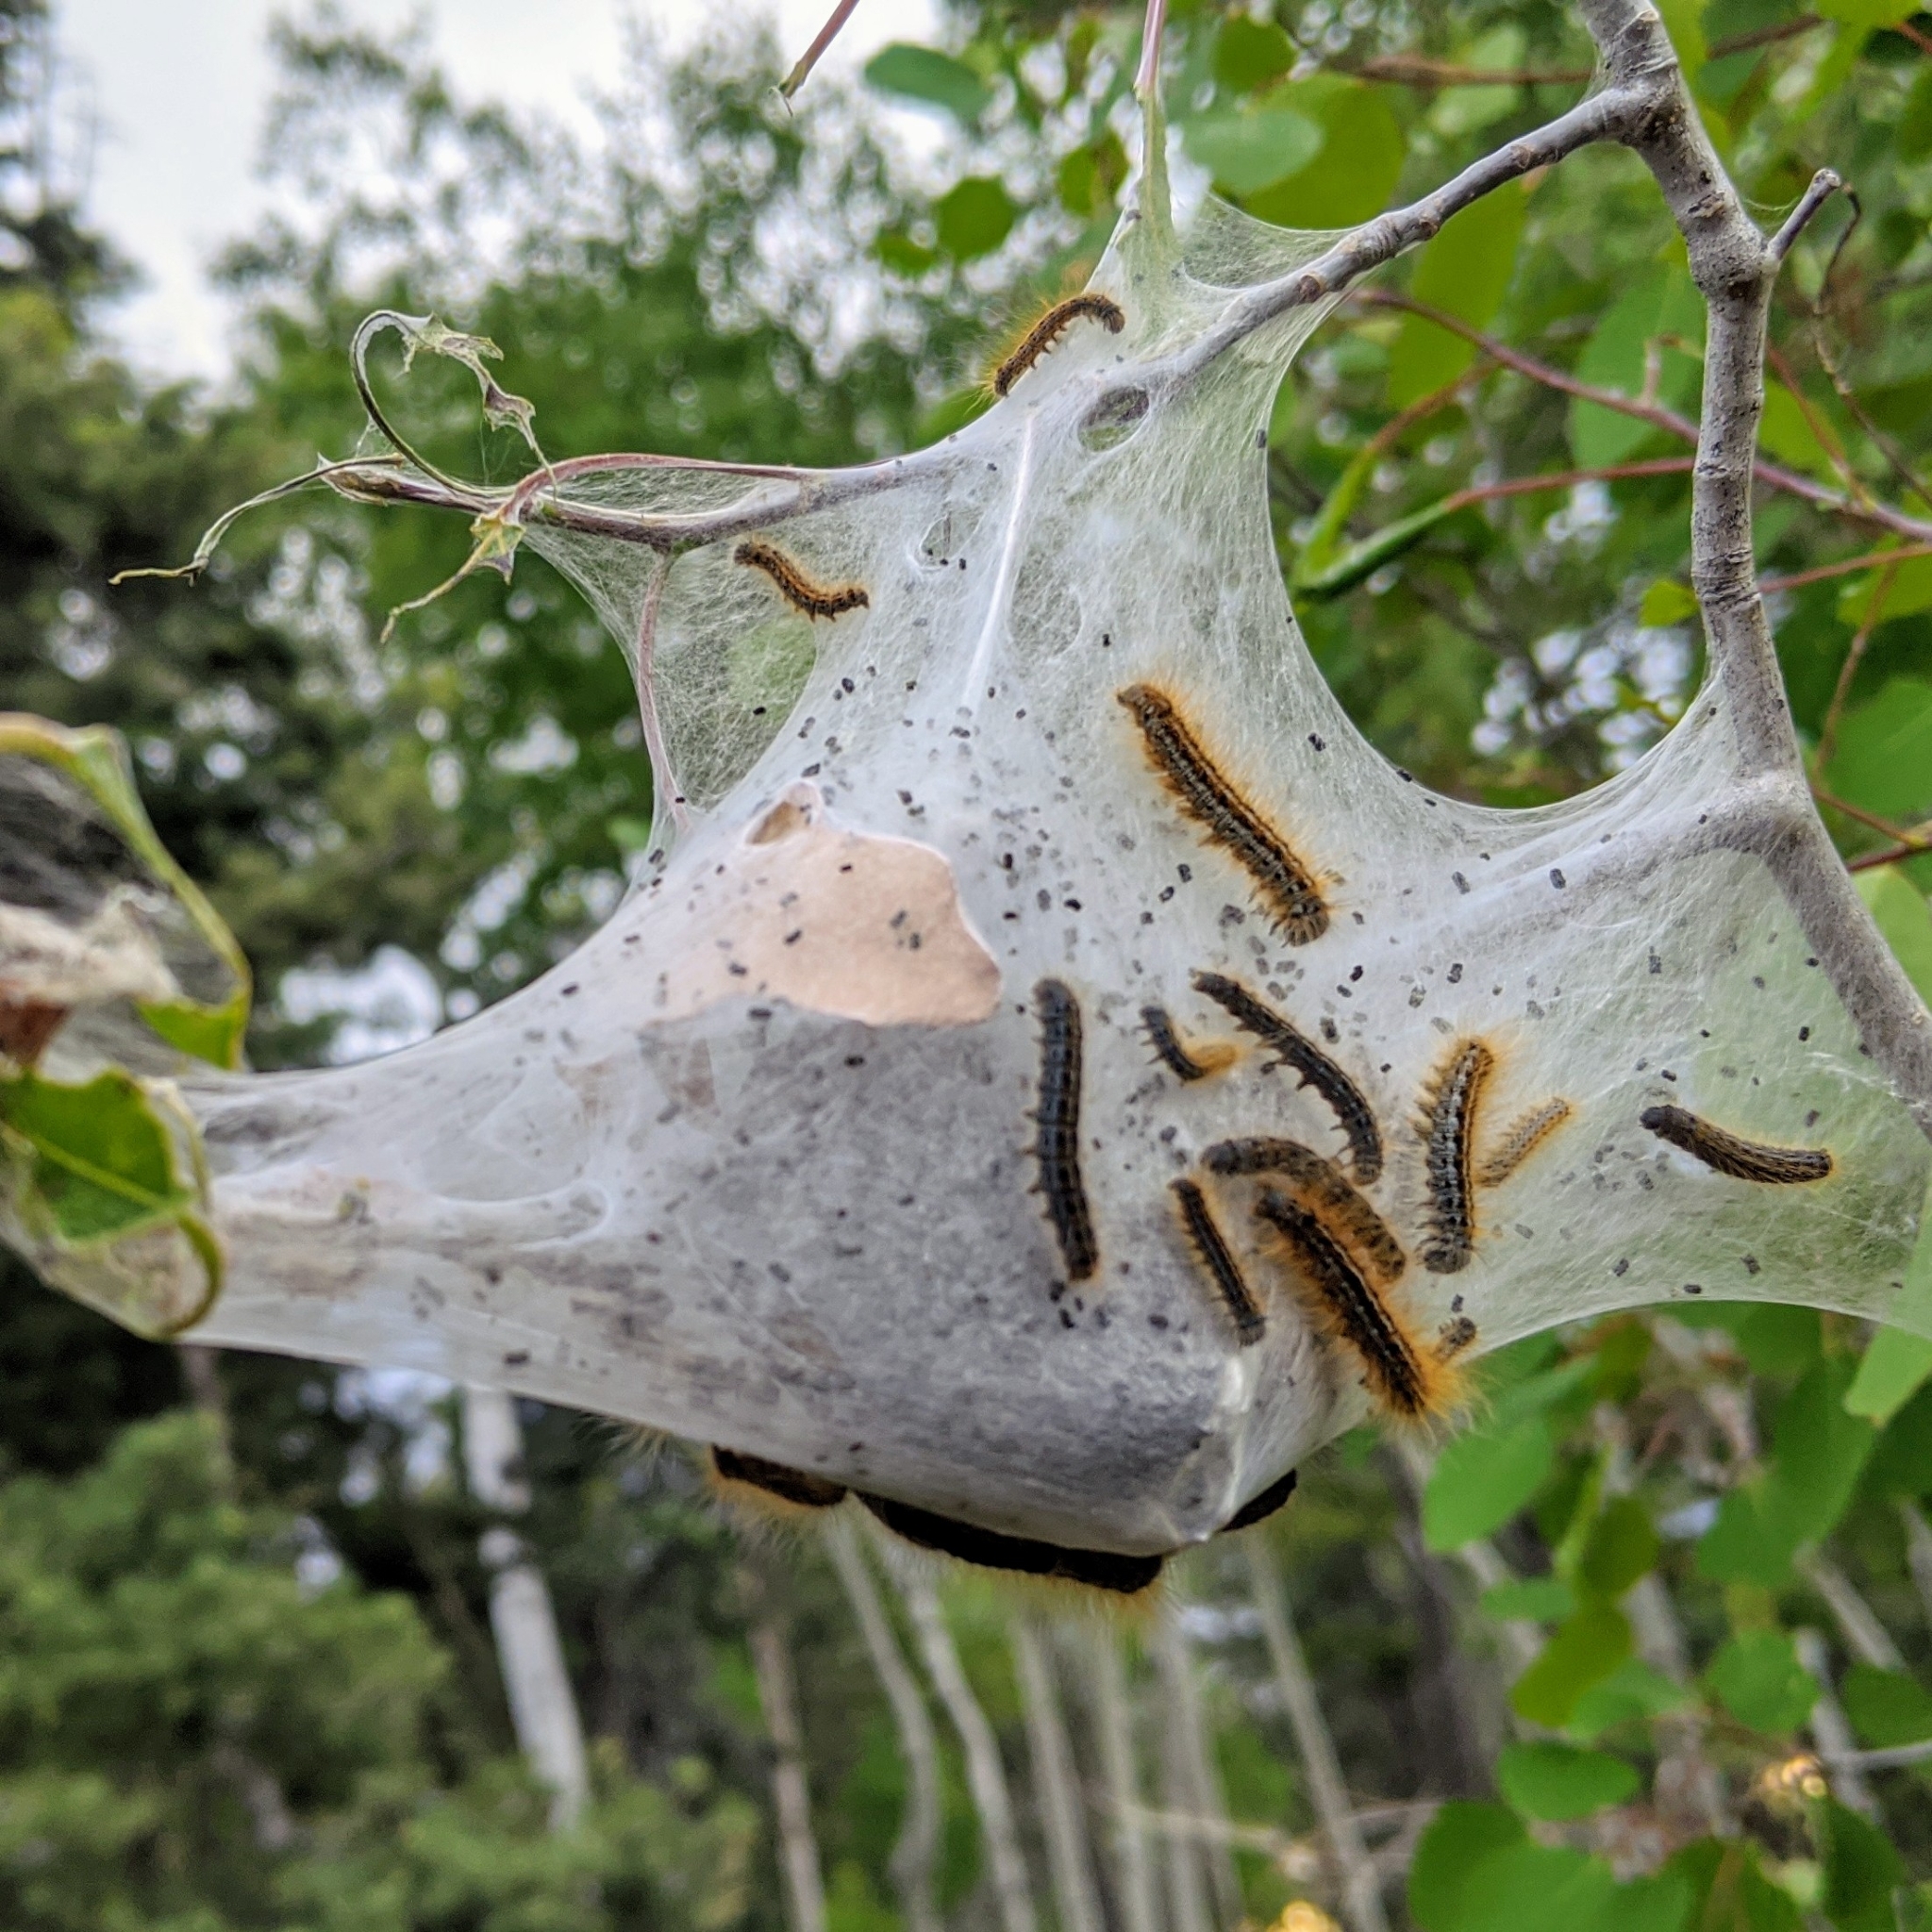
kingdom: Animalia
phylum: Arthropoda
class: Insecta
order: Lepidoptera
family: Lasiocampidae
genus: Malacosoma
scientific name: Malacosoma californica
